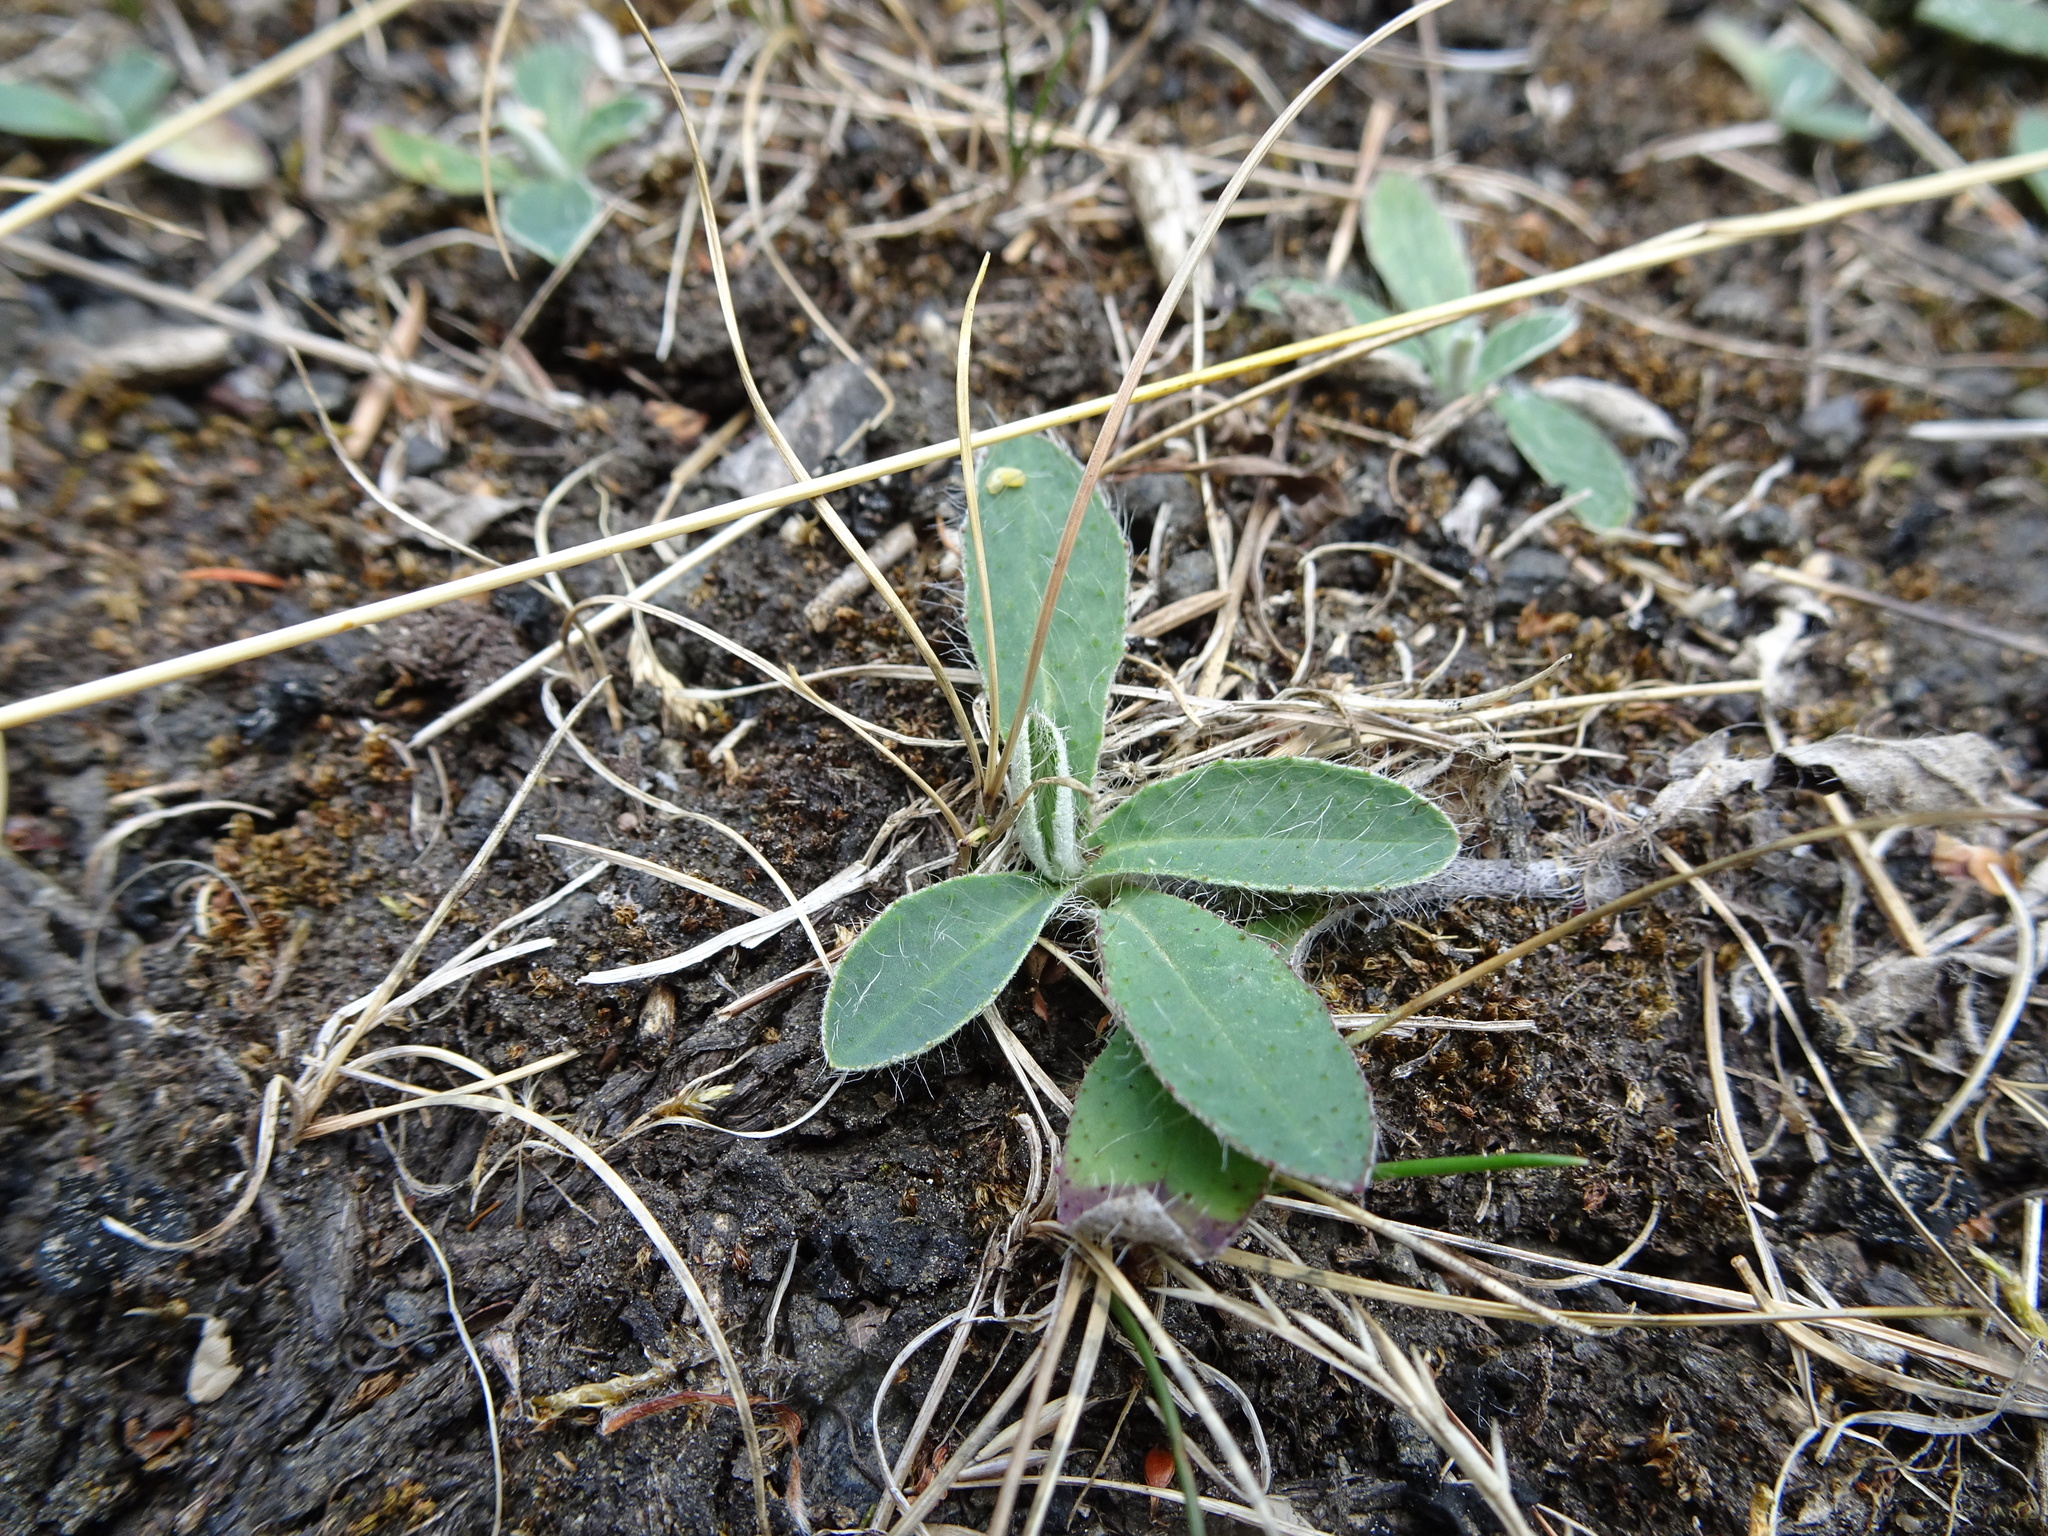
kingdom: Plantae
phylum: Tracheophyta
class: Magnoliopsida
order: Asterales
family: Asteraceae
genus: Pilosella
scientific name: Pilosella officinarum
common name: Mouse-ear hawkweed
